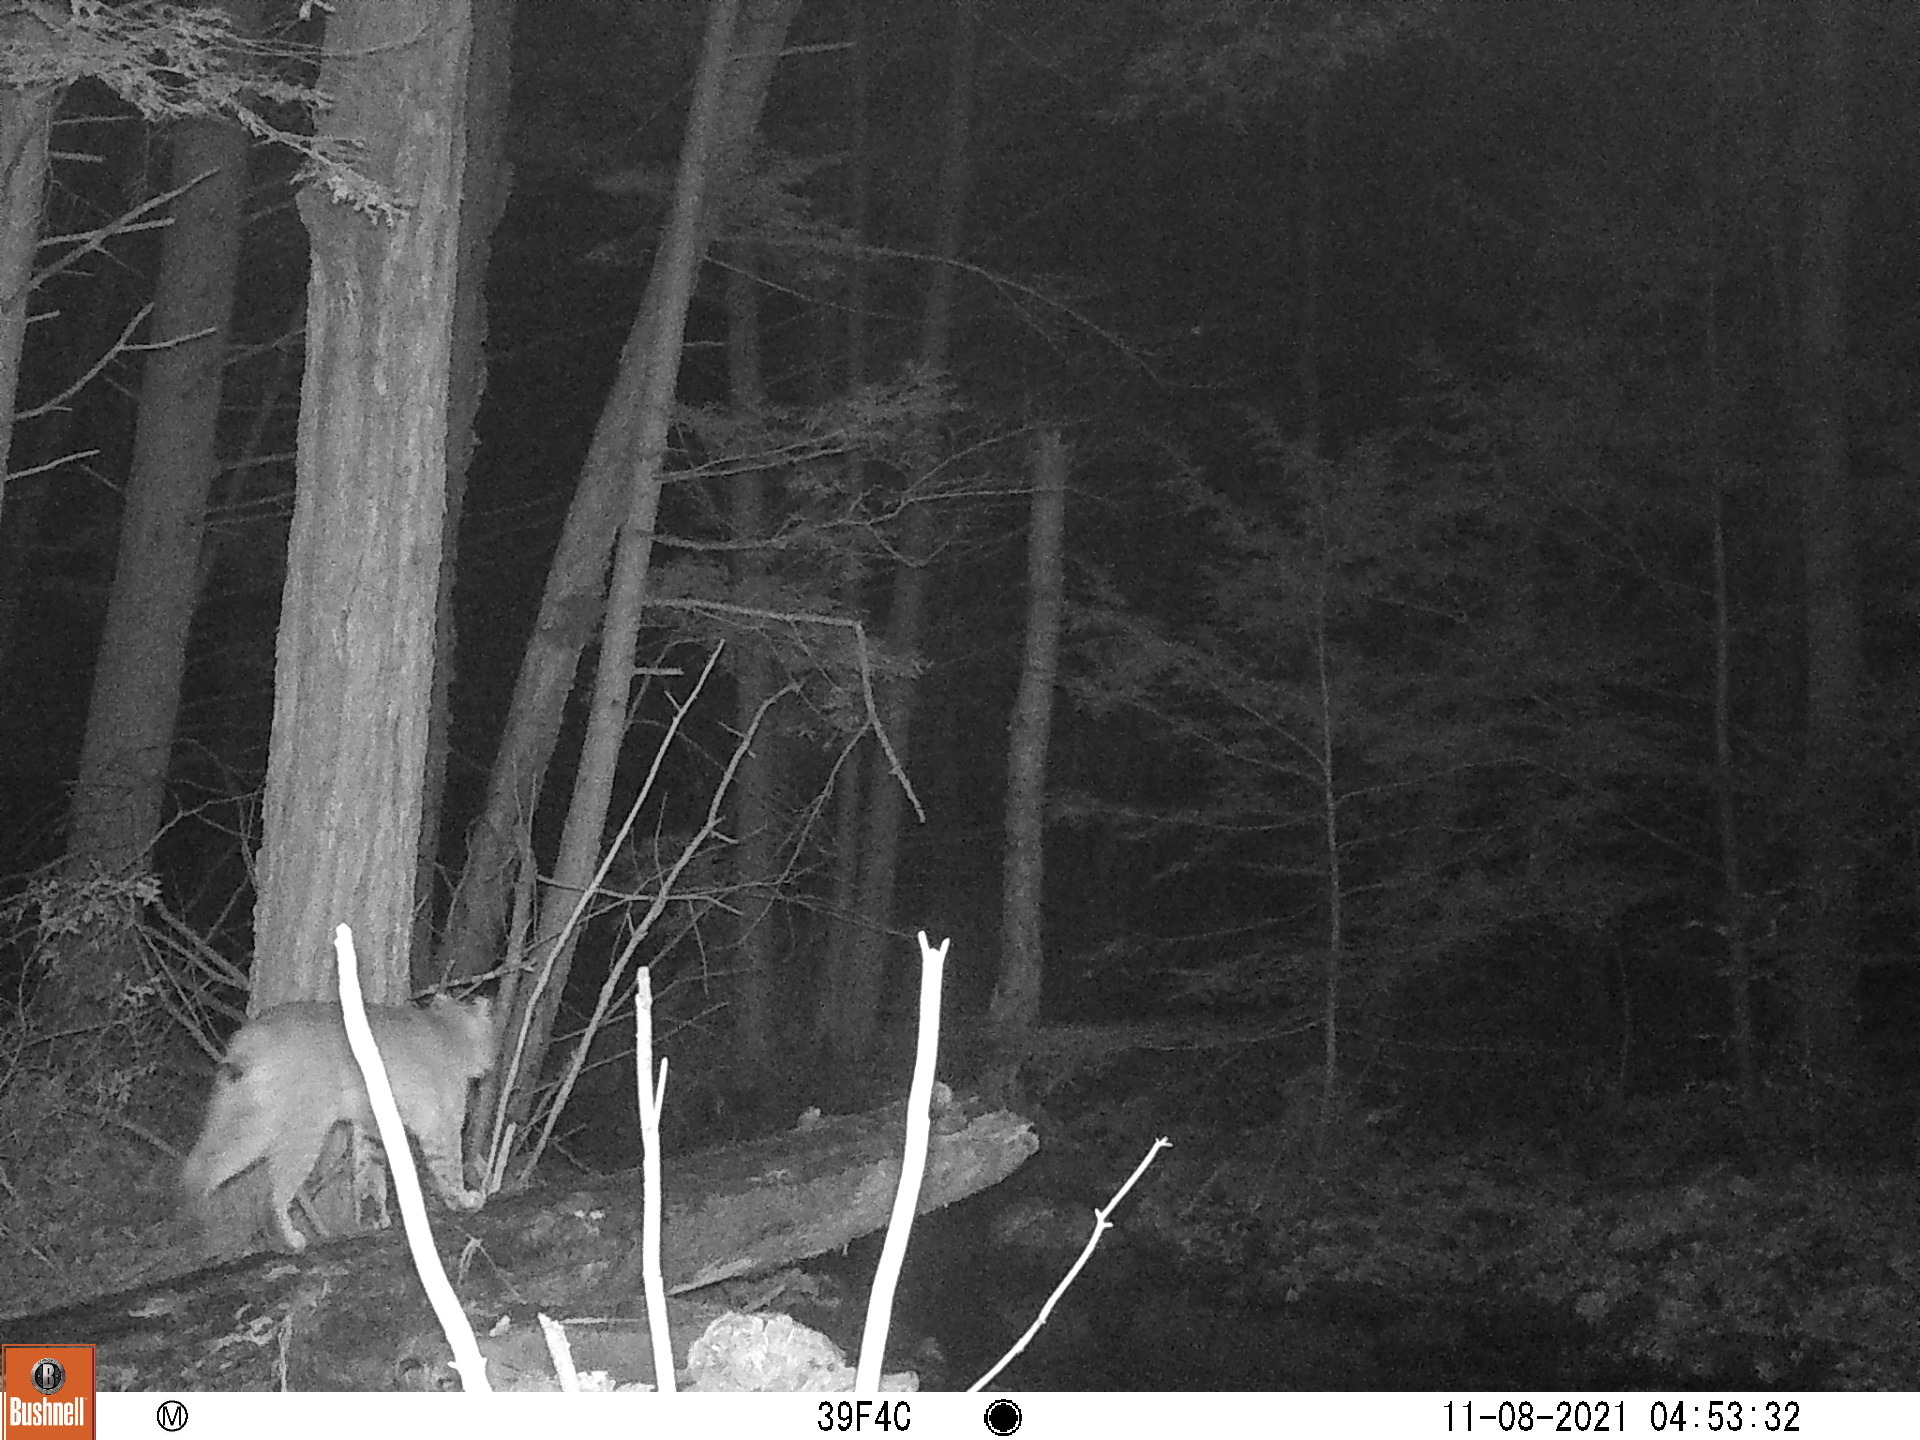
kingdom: Animalia
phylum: Chordata
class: Mammalia
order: Carnivora
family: Felidae
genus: Lynx
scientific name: Lynx rufus
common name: Bobcat
